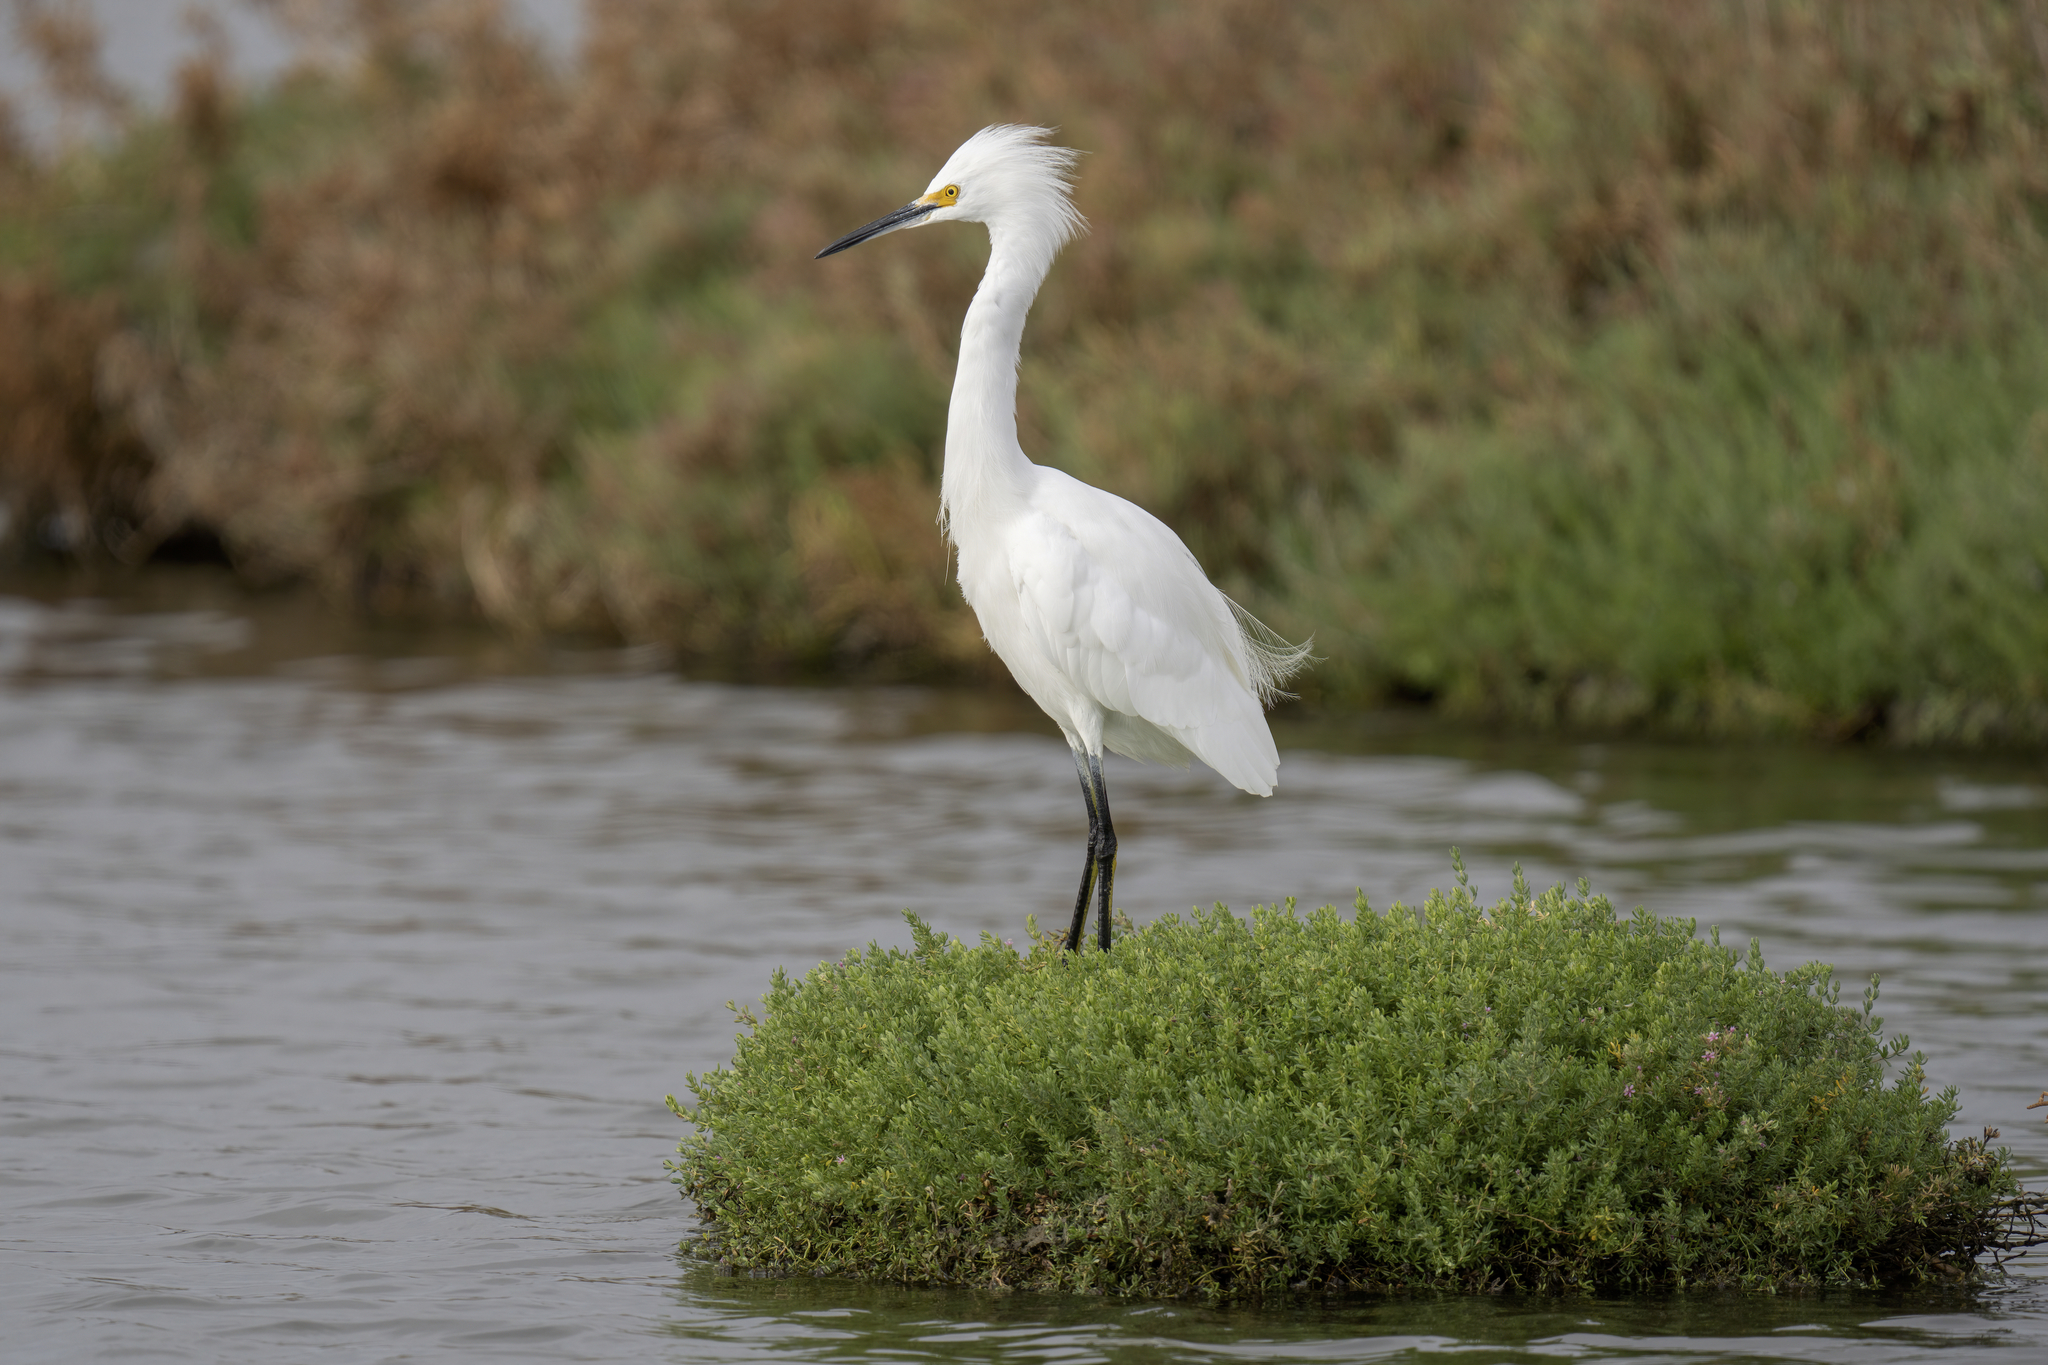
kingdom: Animalia
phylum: Chordata
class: Aves
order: Pelecaniformes
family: Ardeidae
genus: Egretta
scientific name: Egretta thula
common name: Snowy egret
